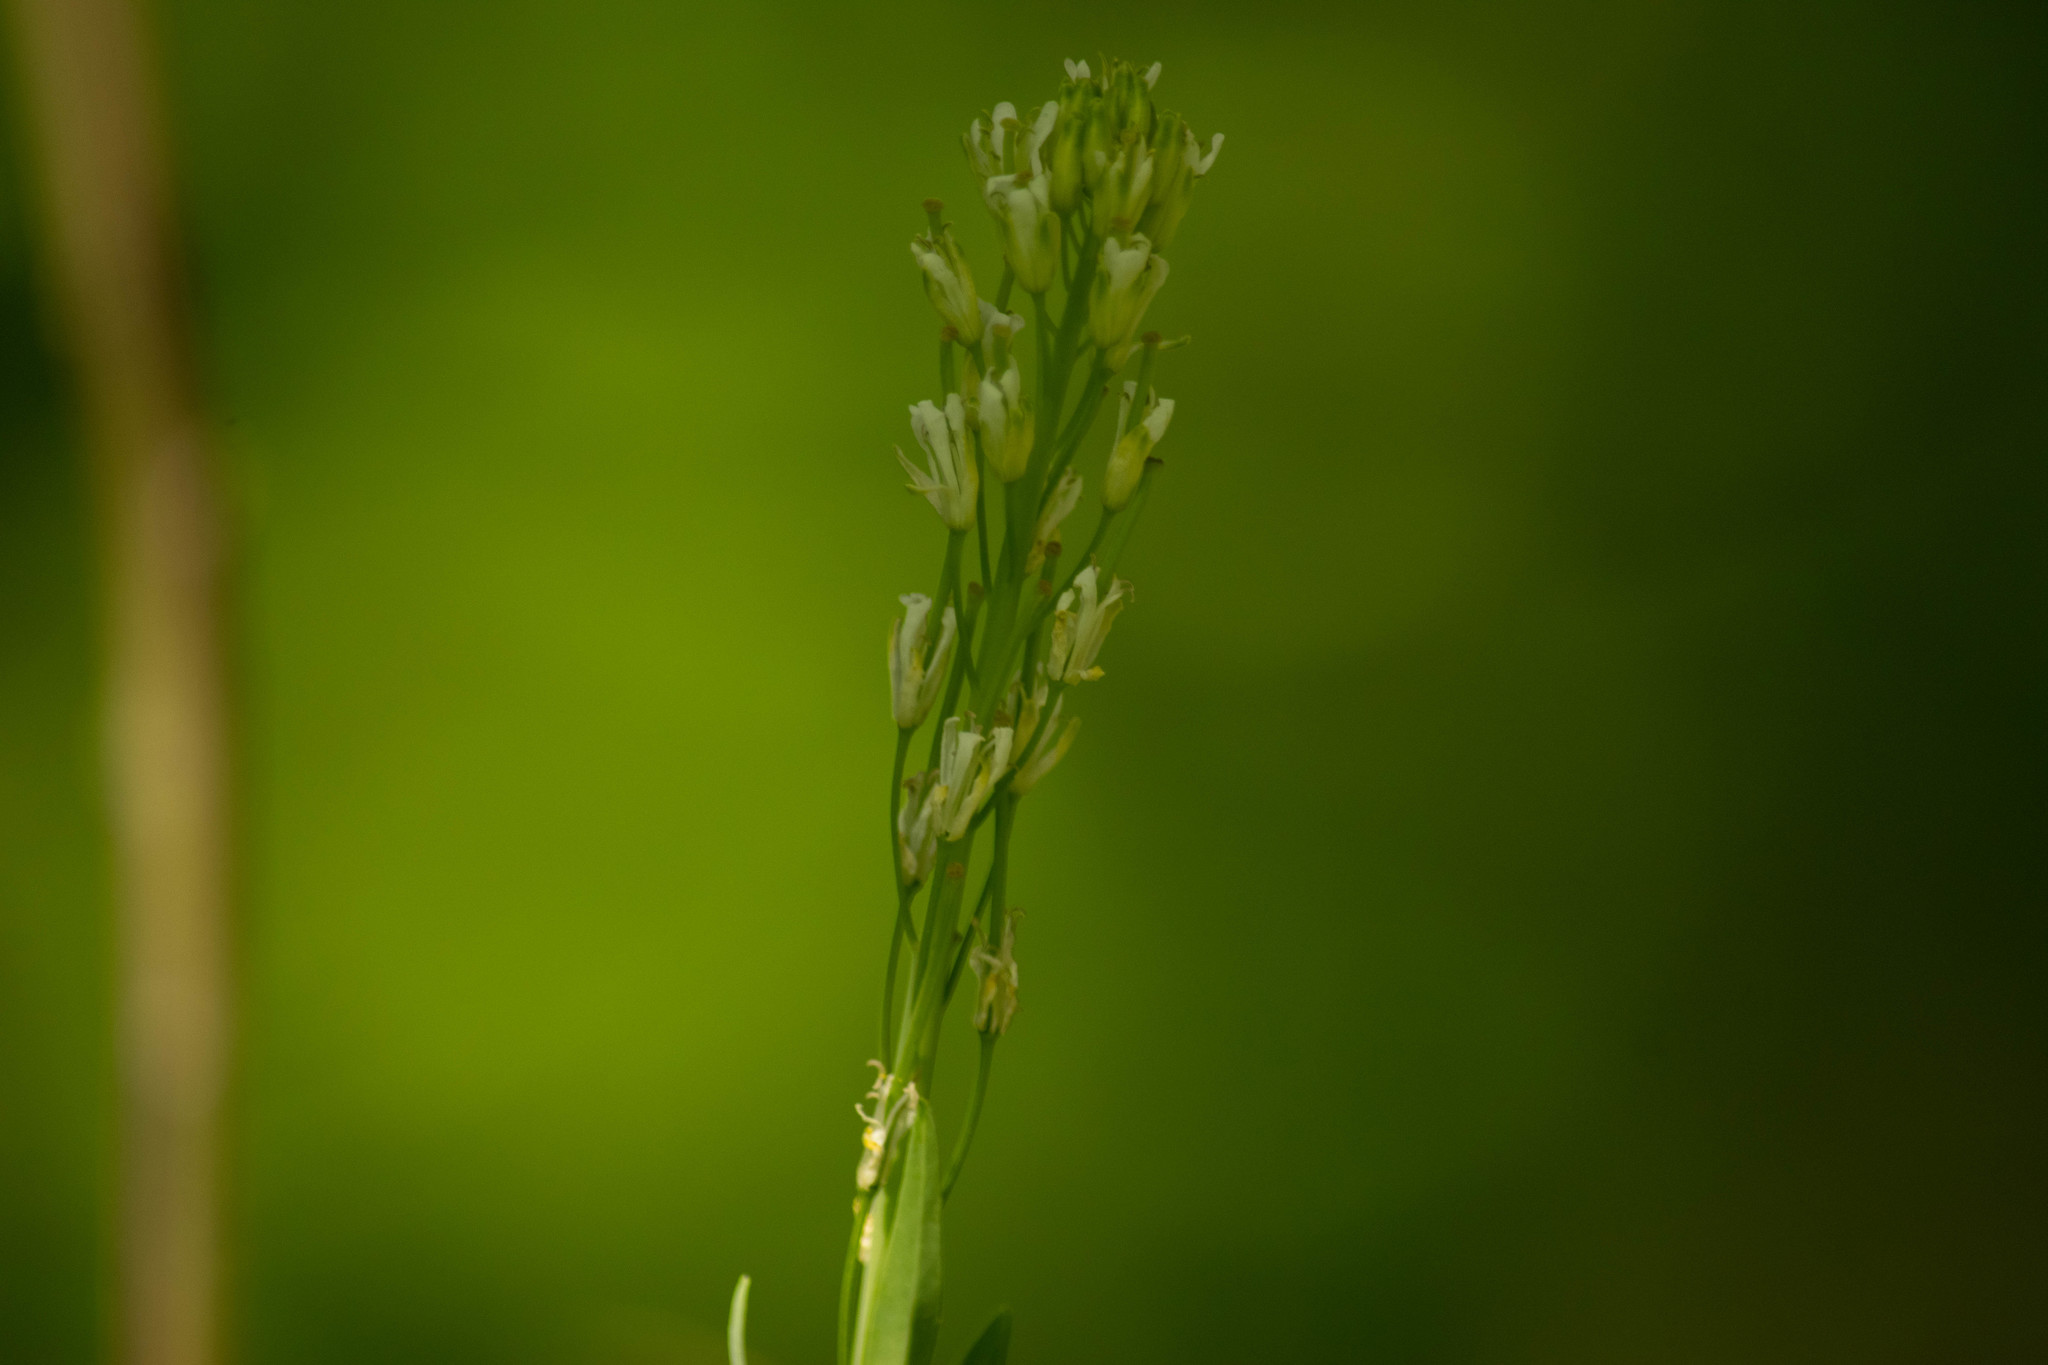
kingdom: Plantae
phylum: Tracheophyta
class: Magnoliopsida
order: Brassicales
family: Brassicaceae
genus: Turritis
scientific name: Turritis glabra
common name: Tower rockcress
